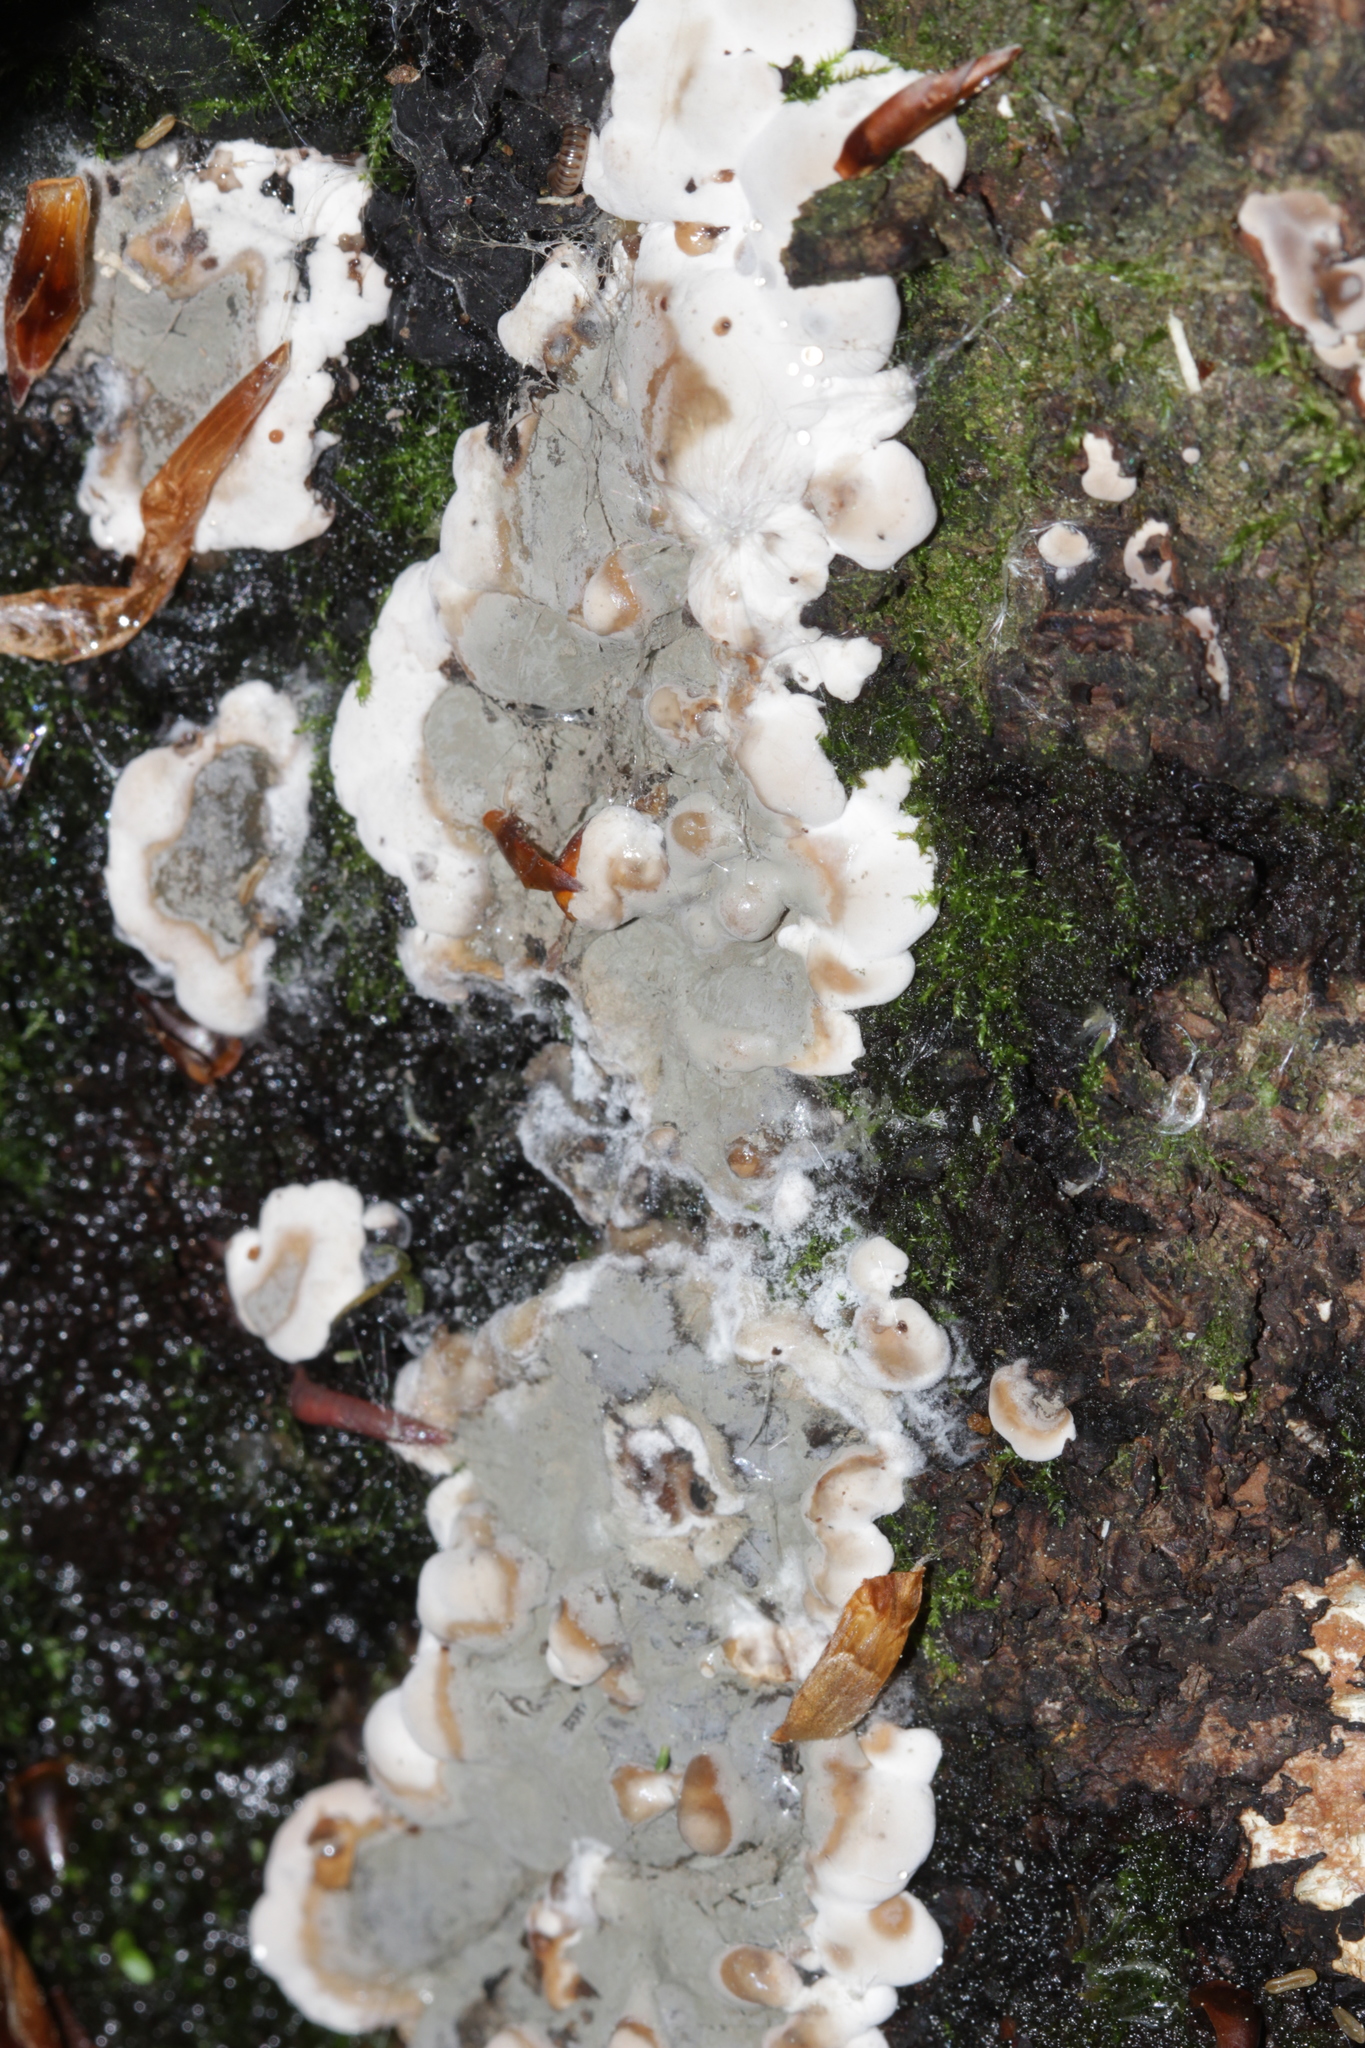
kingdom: Fungi
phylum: Ascomycota
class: Sordariomycetes
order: Xylariales
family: Xylariaceae
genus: Kretzschmaria
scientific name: Kretzschmaria deusta
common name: Brittle cinder
